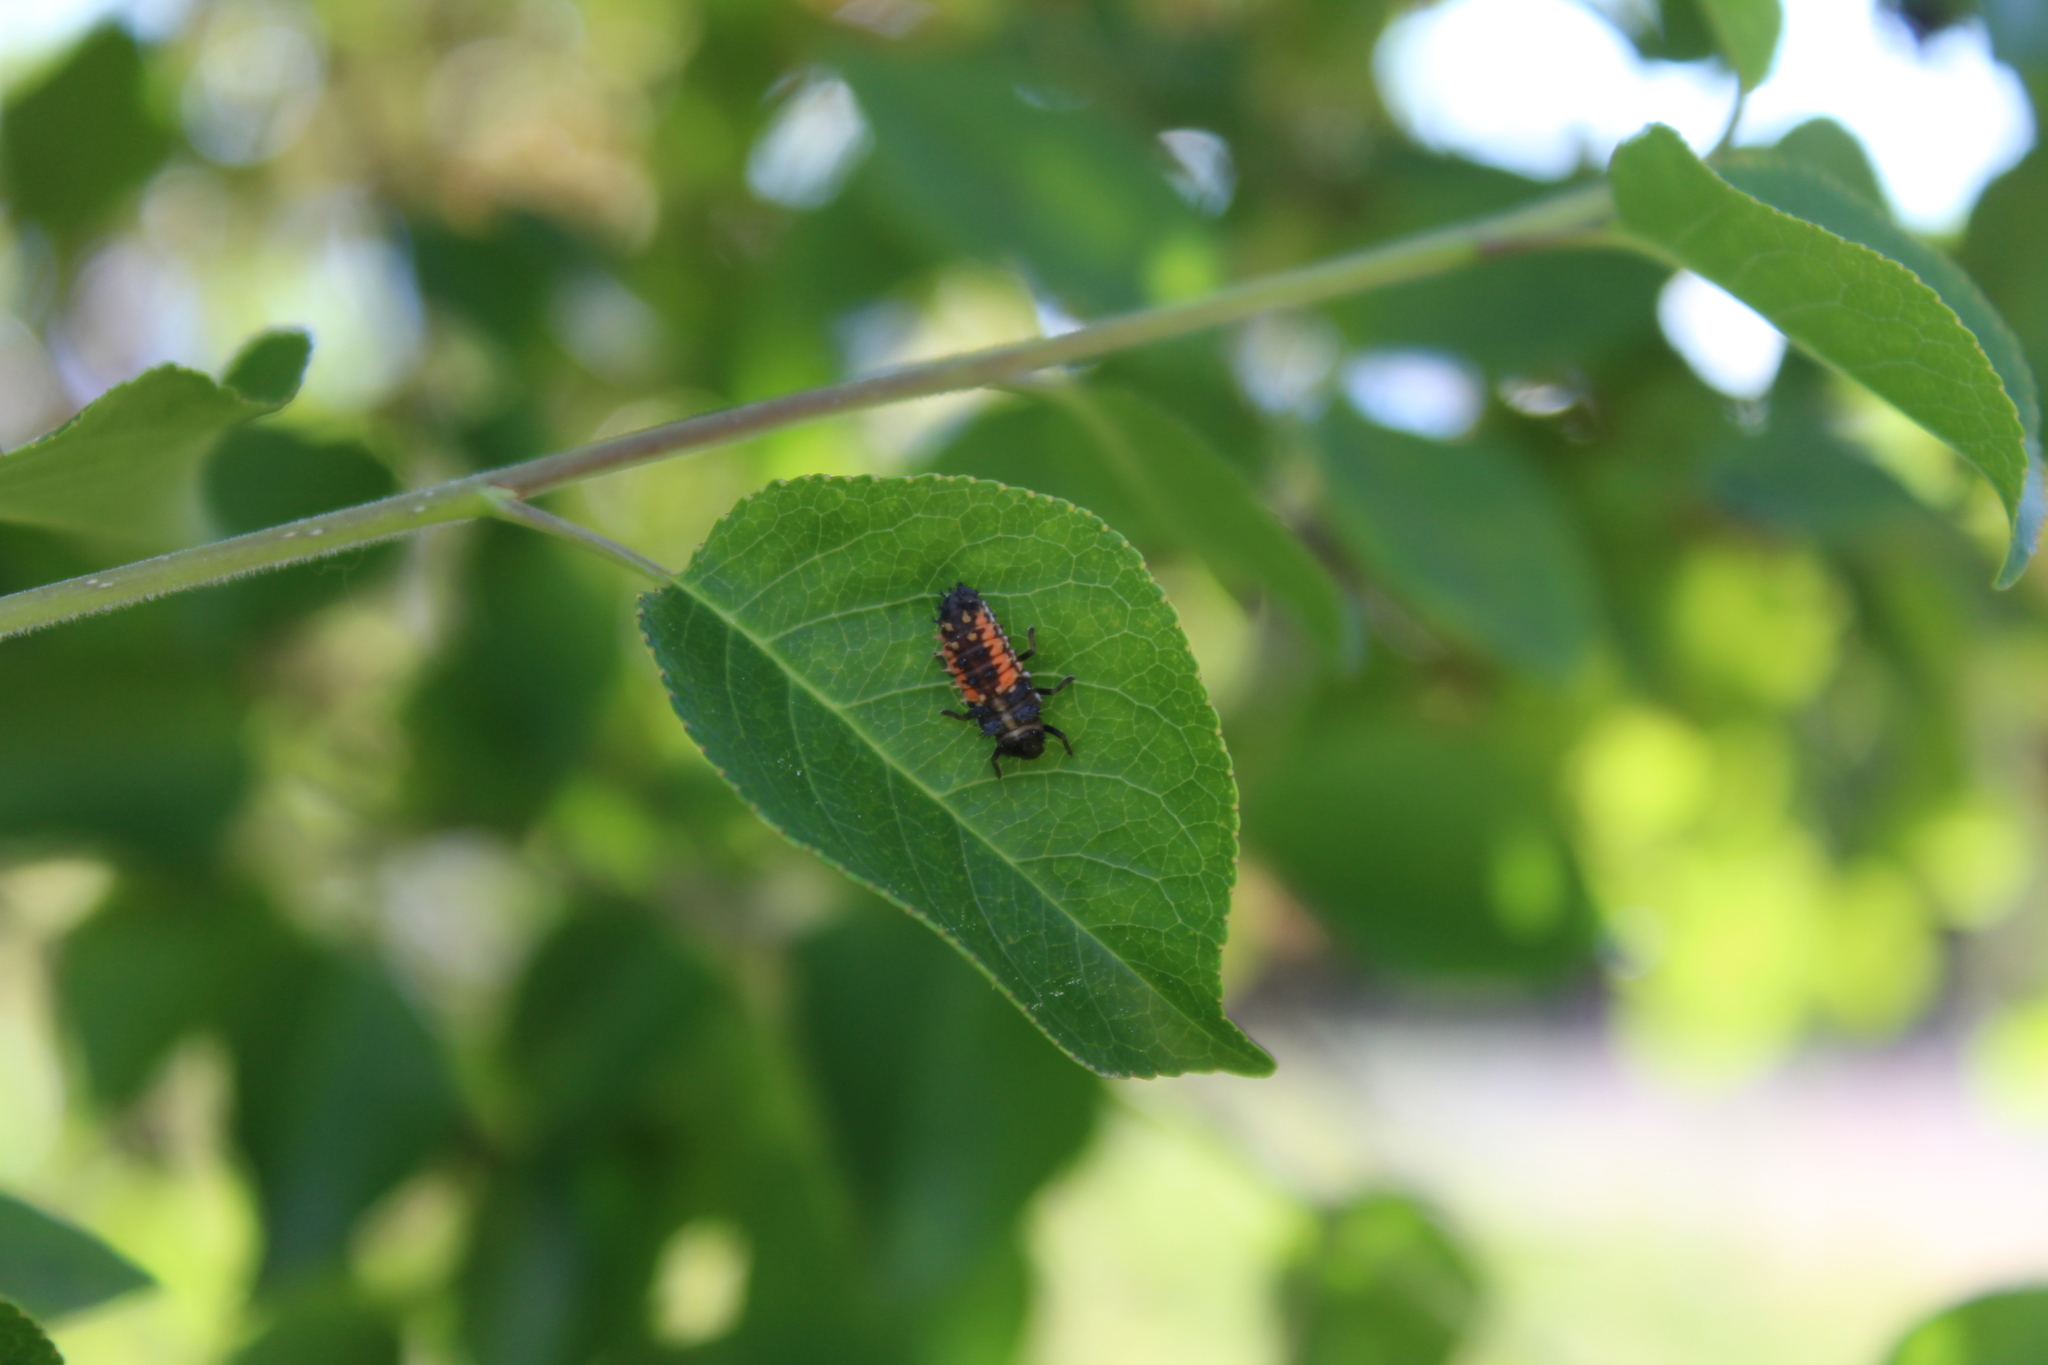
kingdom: Animalia
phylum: Arthropoda
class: Insecta
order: Coleoptera
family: Coccinellidae
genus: Harmonia
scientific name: Harmonia axyridis
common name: Harlequin ladybird
